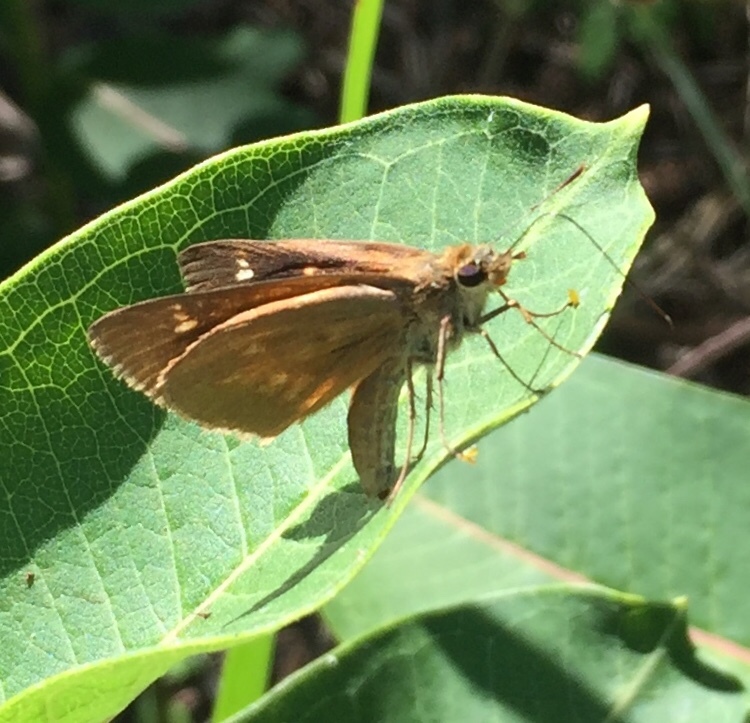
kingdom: Animalia
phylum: Arthropoda
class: Insecta
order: Lepidoptera
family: Hesperiidae
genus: Poanes
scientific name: Poanes viator
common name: Broad-winged skipper
